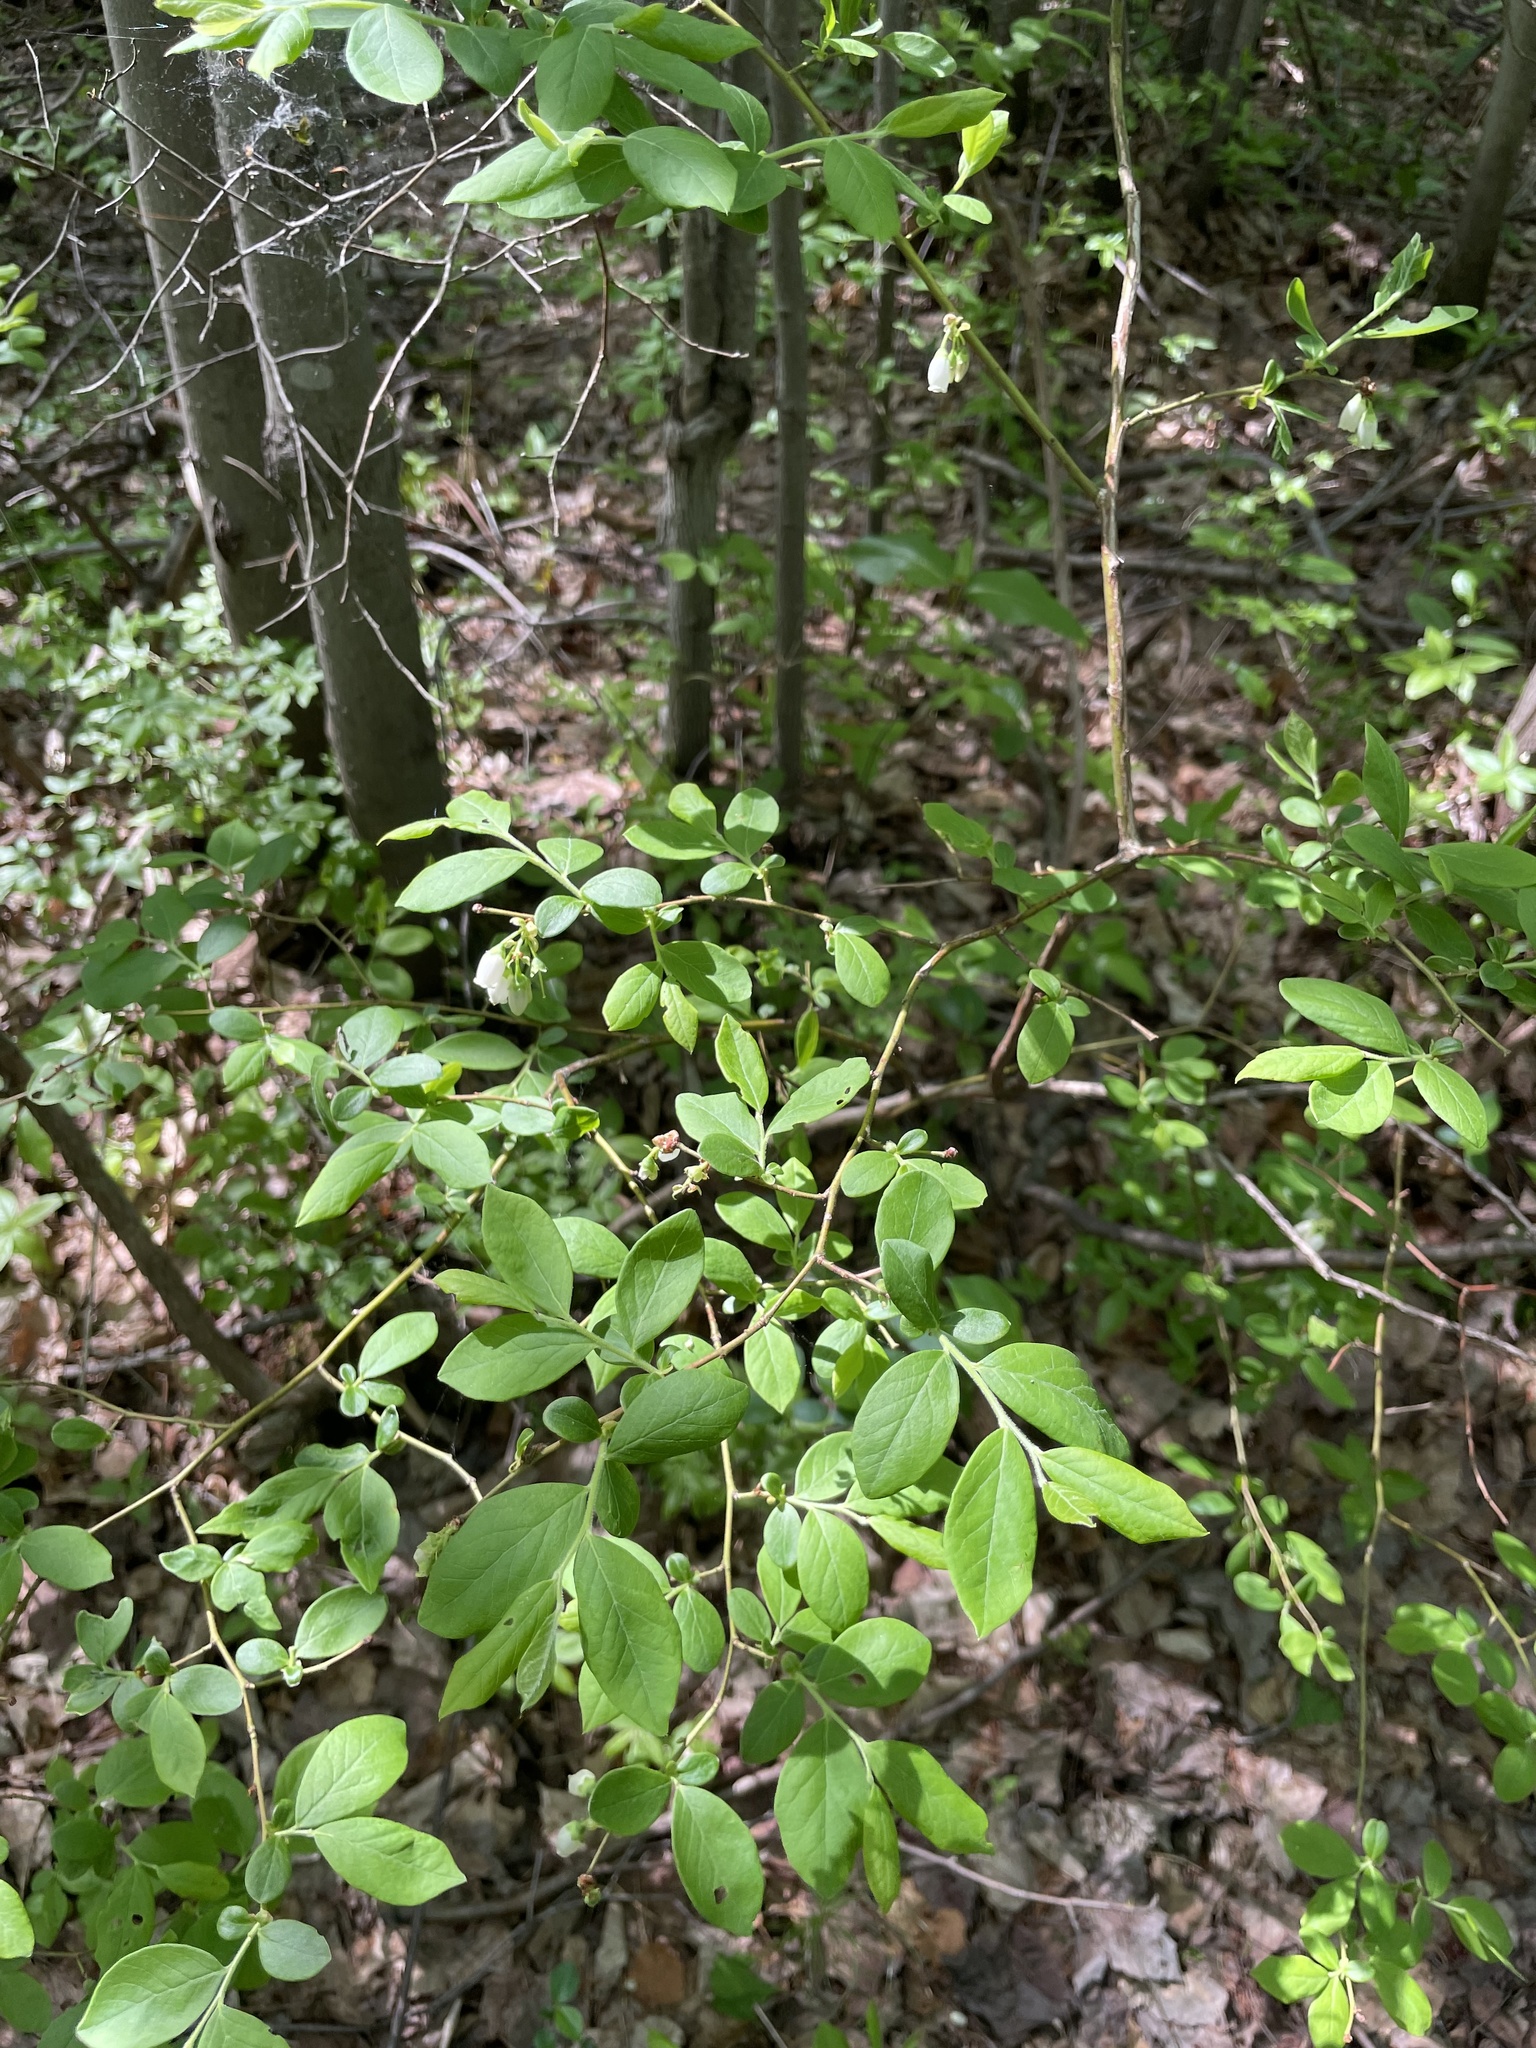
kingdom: Plantae
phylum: Tracheophyta
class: Magnoliopsida
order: Ericales
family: Ericaceae
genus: Vaccinium
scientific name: Vaccinium corymbosum
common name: Blueberry
